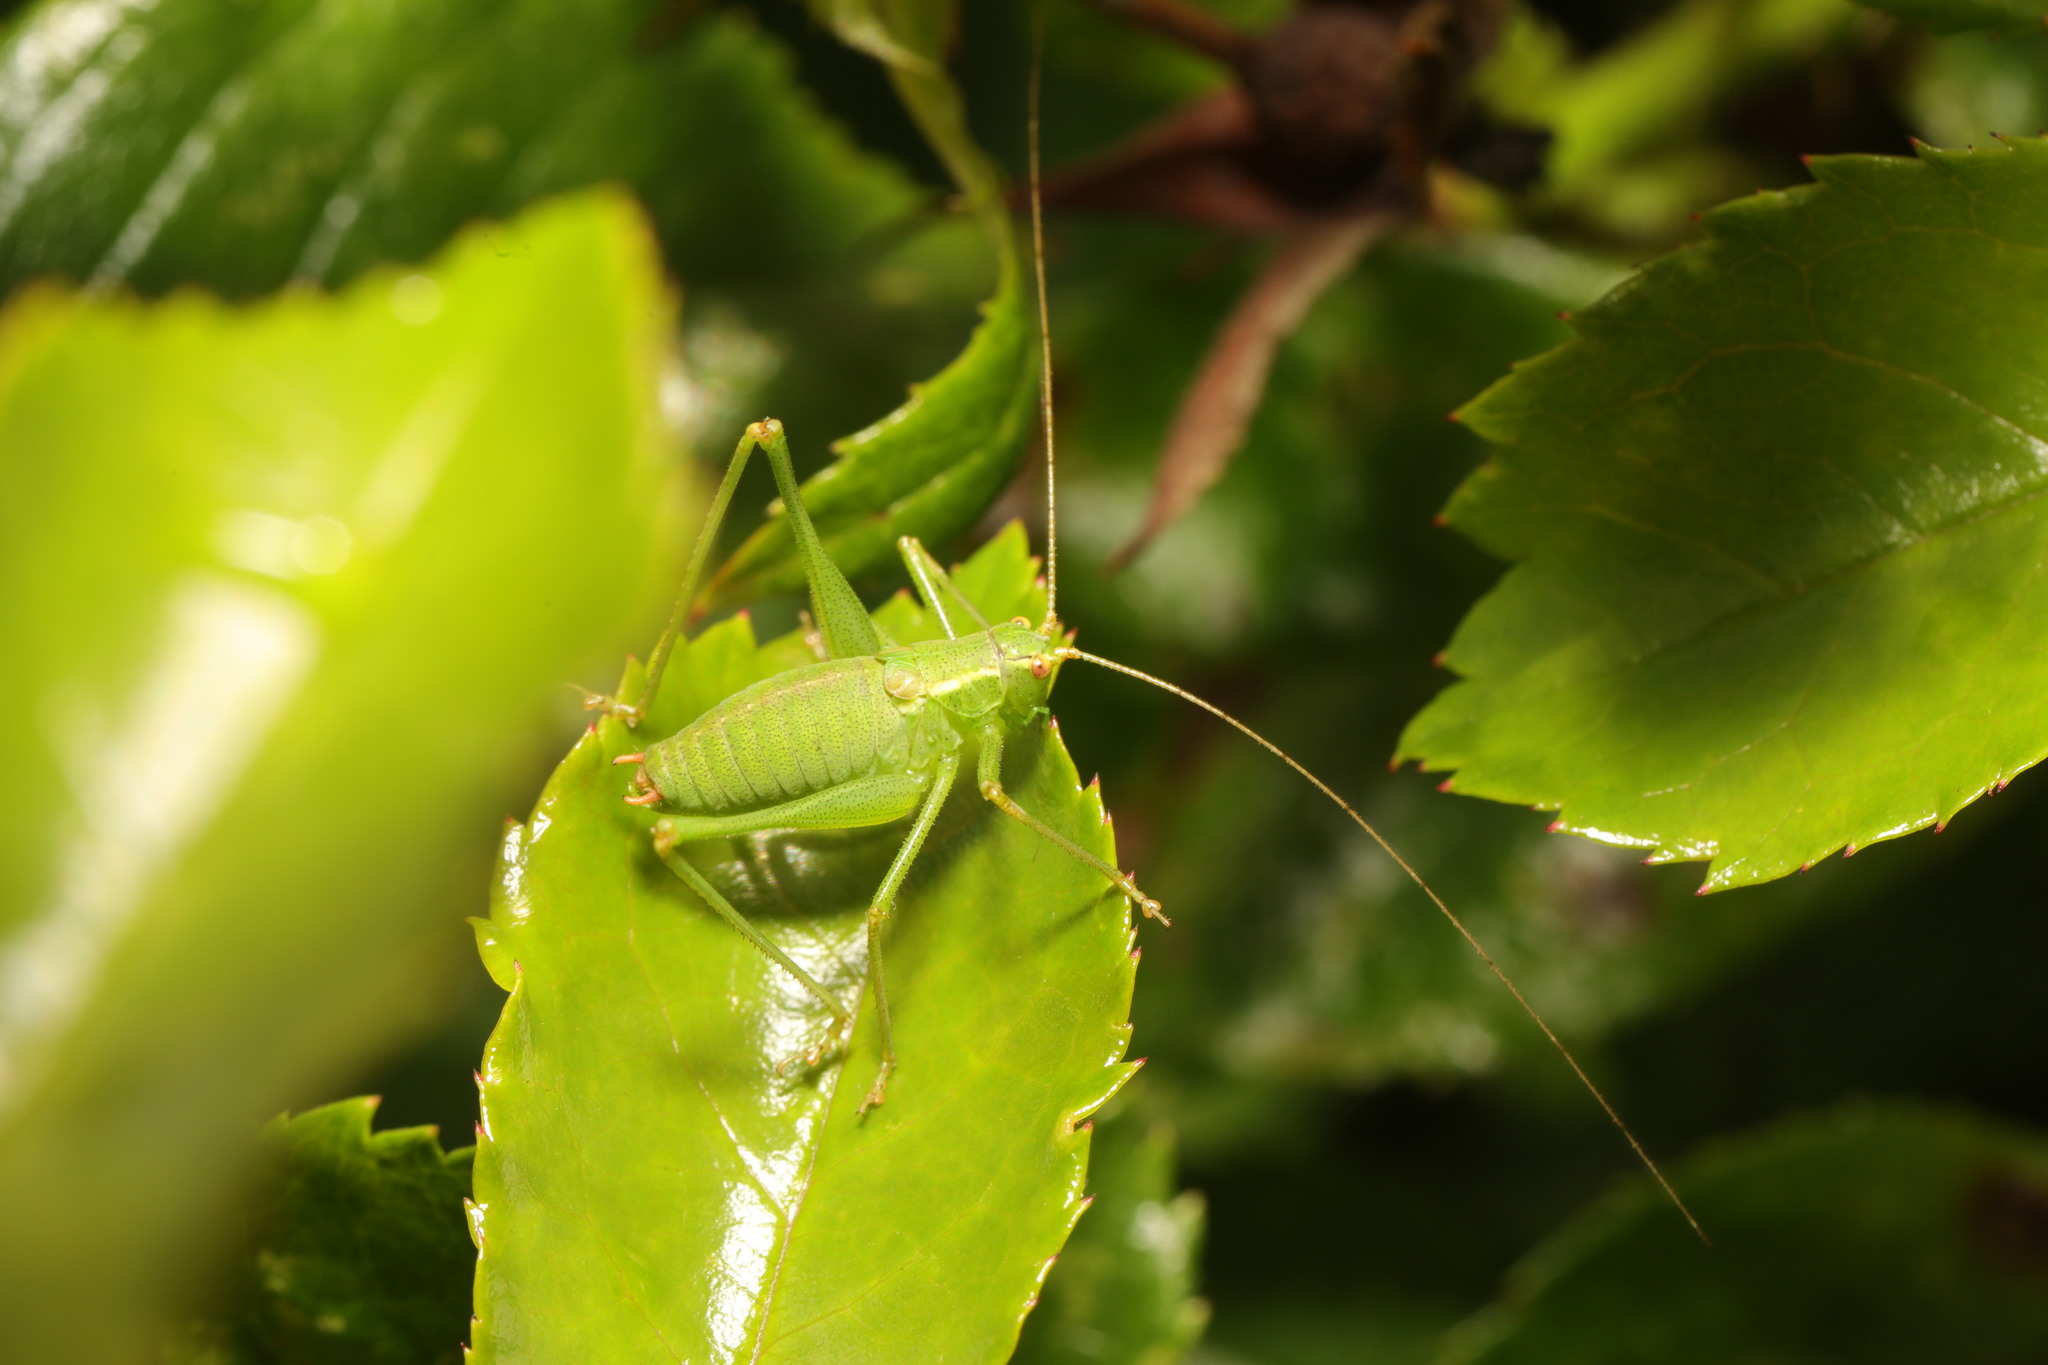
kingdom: Animalia
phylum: Arthropoda
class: Insecta
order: Orthoptera
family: Tettigoniidae
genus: Leptophyes
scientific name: Leptophyes punctatissima
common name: Speckled bush-cricket
